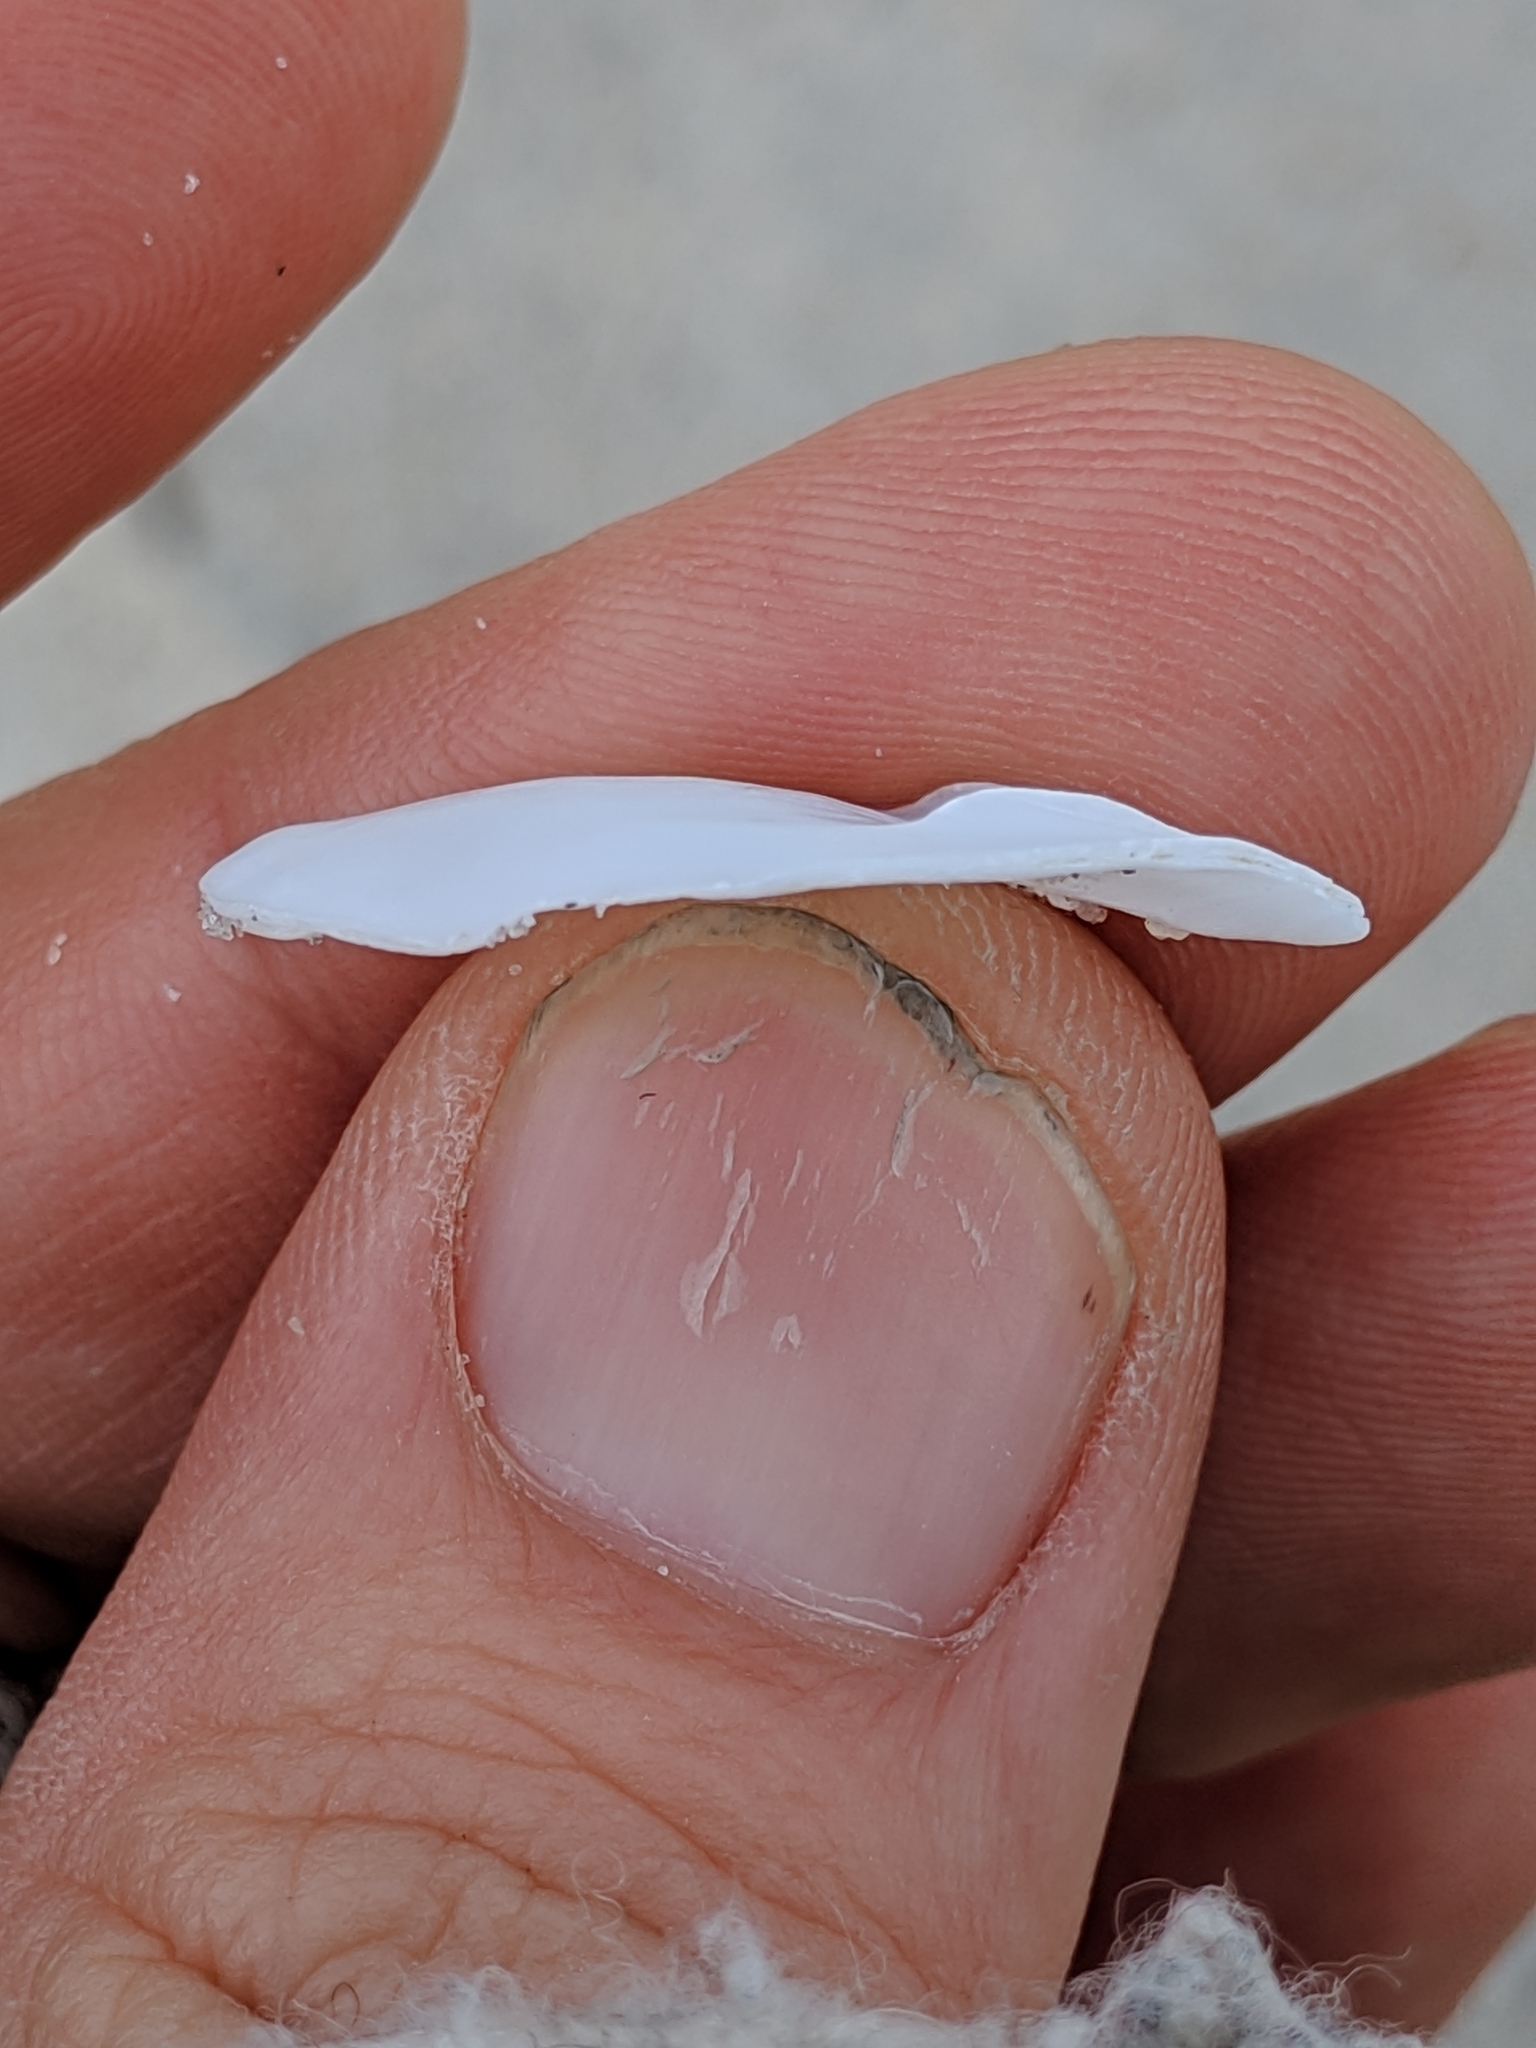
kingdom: Animalia
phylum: Mollusca
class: Gastropoda
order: Littorinimorpha
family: Calyptraeidae
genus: Crepidula
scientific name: Crepidula plana
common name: Eastern white slippersnail
